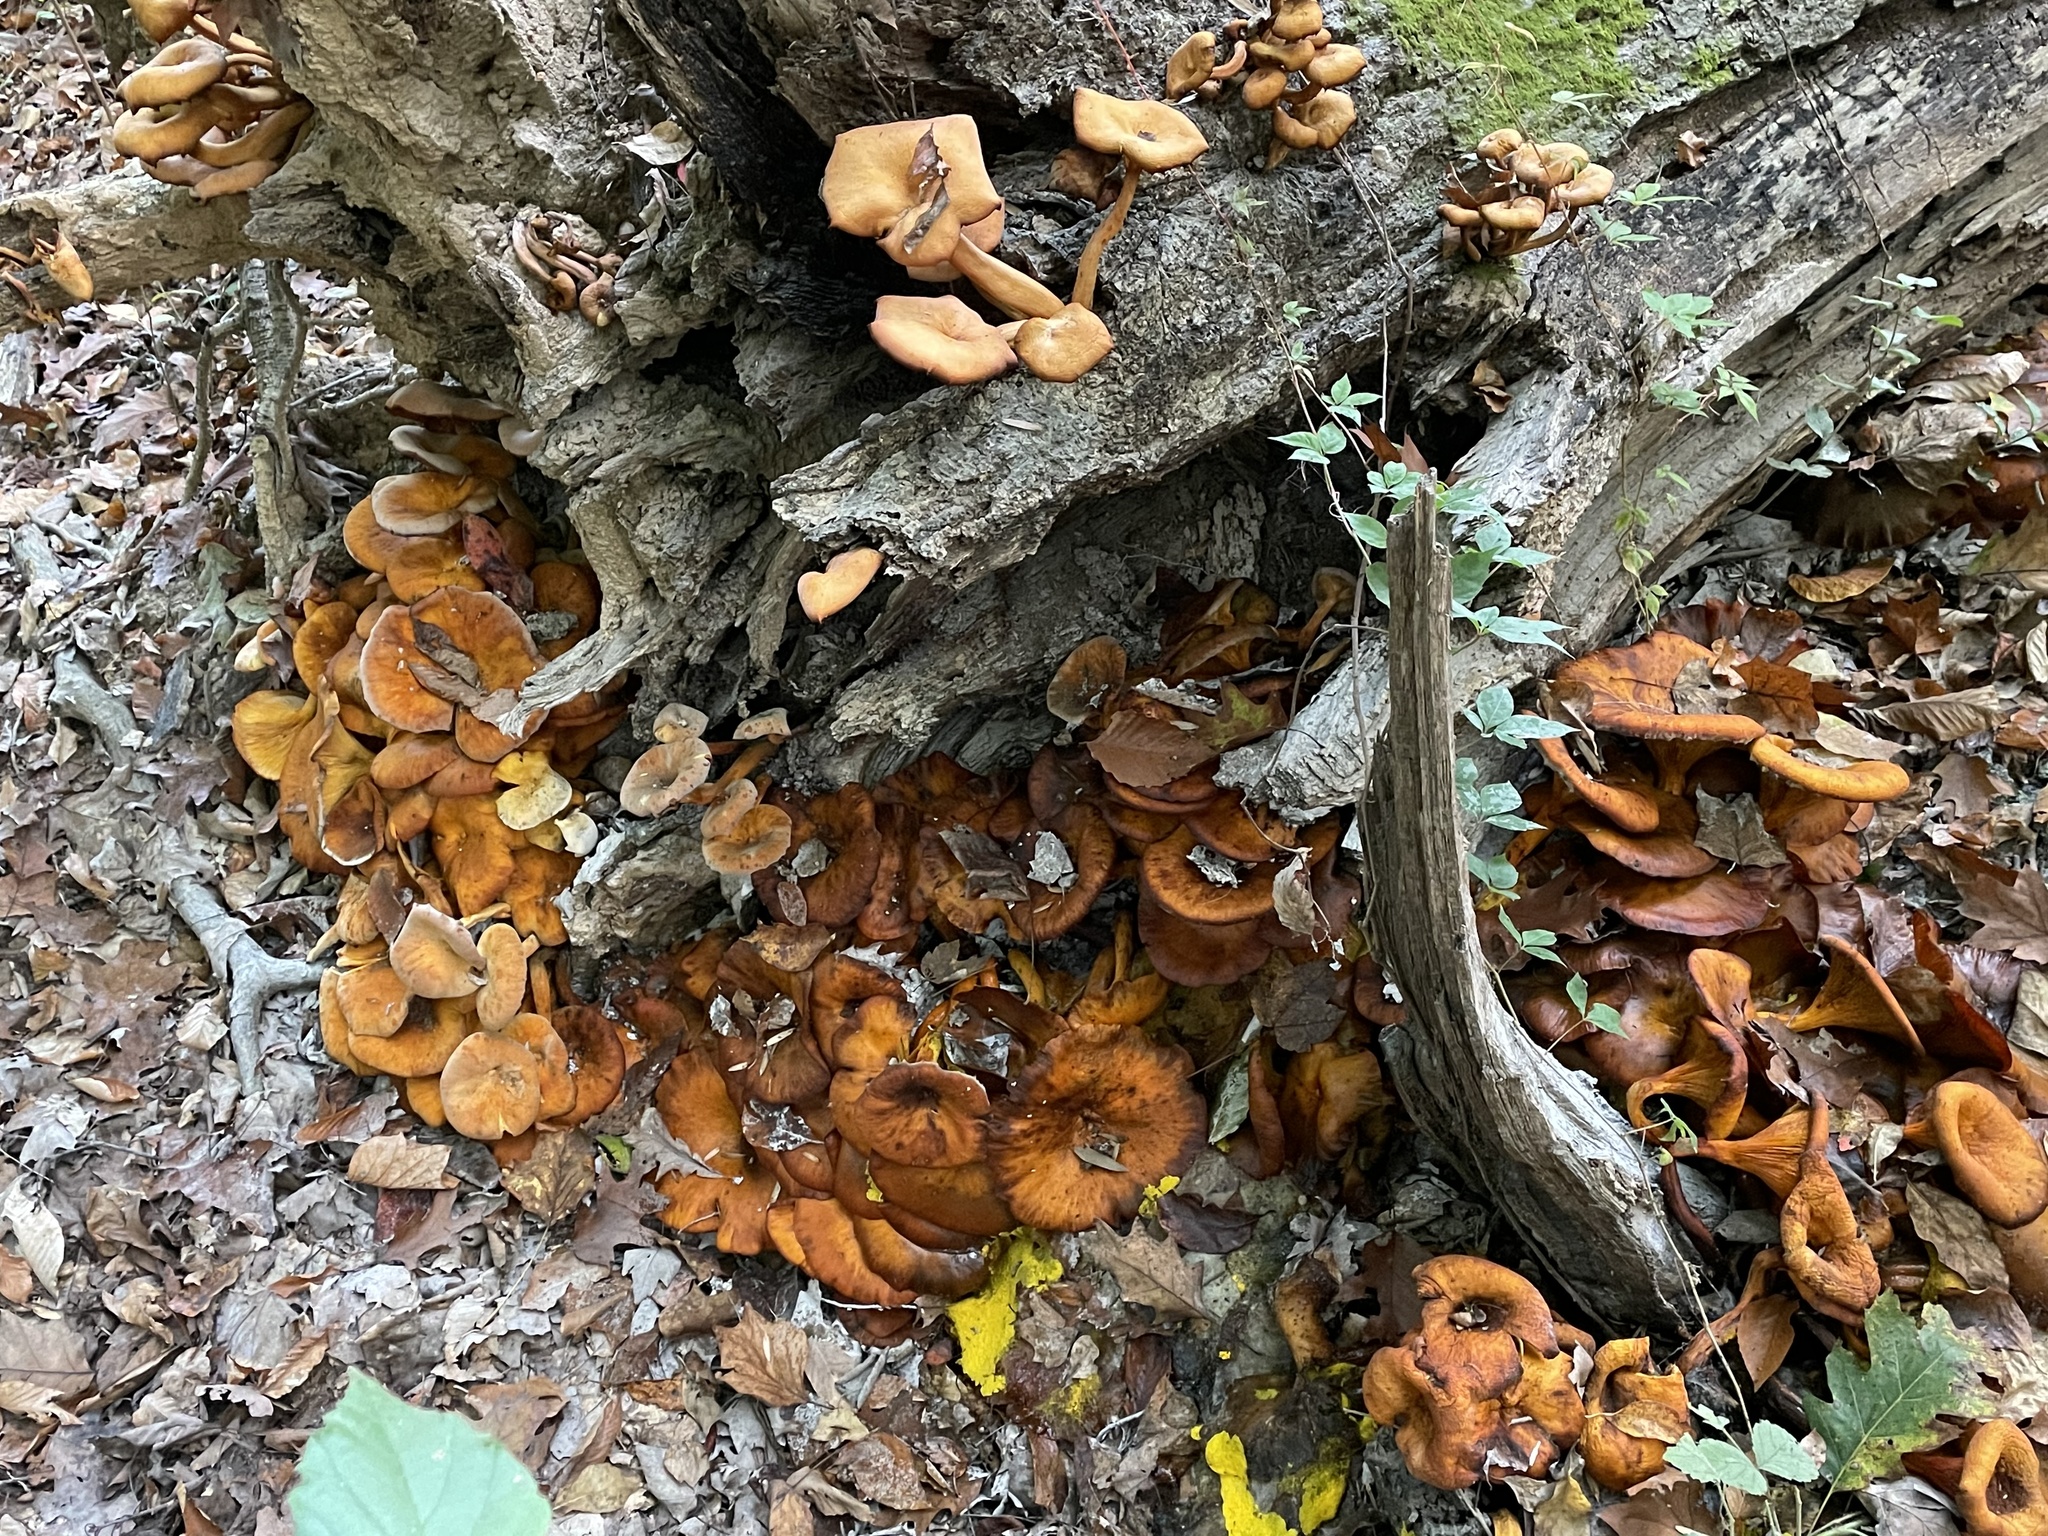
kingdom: Fungi
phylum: Basidiomycota
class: Agaricomycetes
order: Agaricales
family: Omphalotaceae
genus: Omphalotus
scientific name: Omphalotus illudens
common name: Jack o lantern
